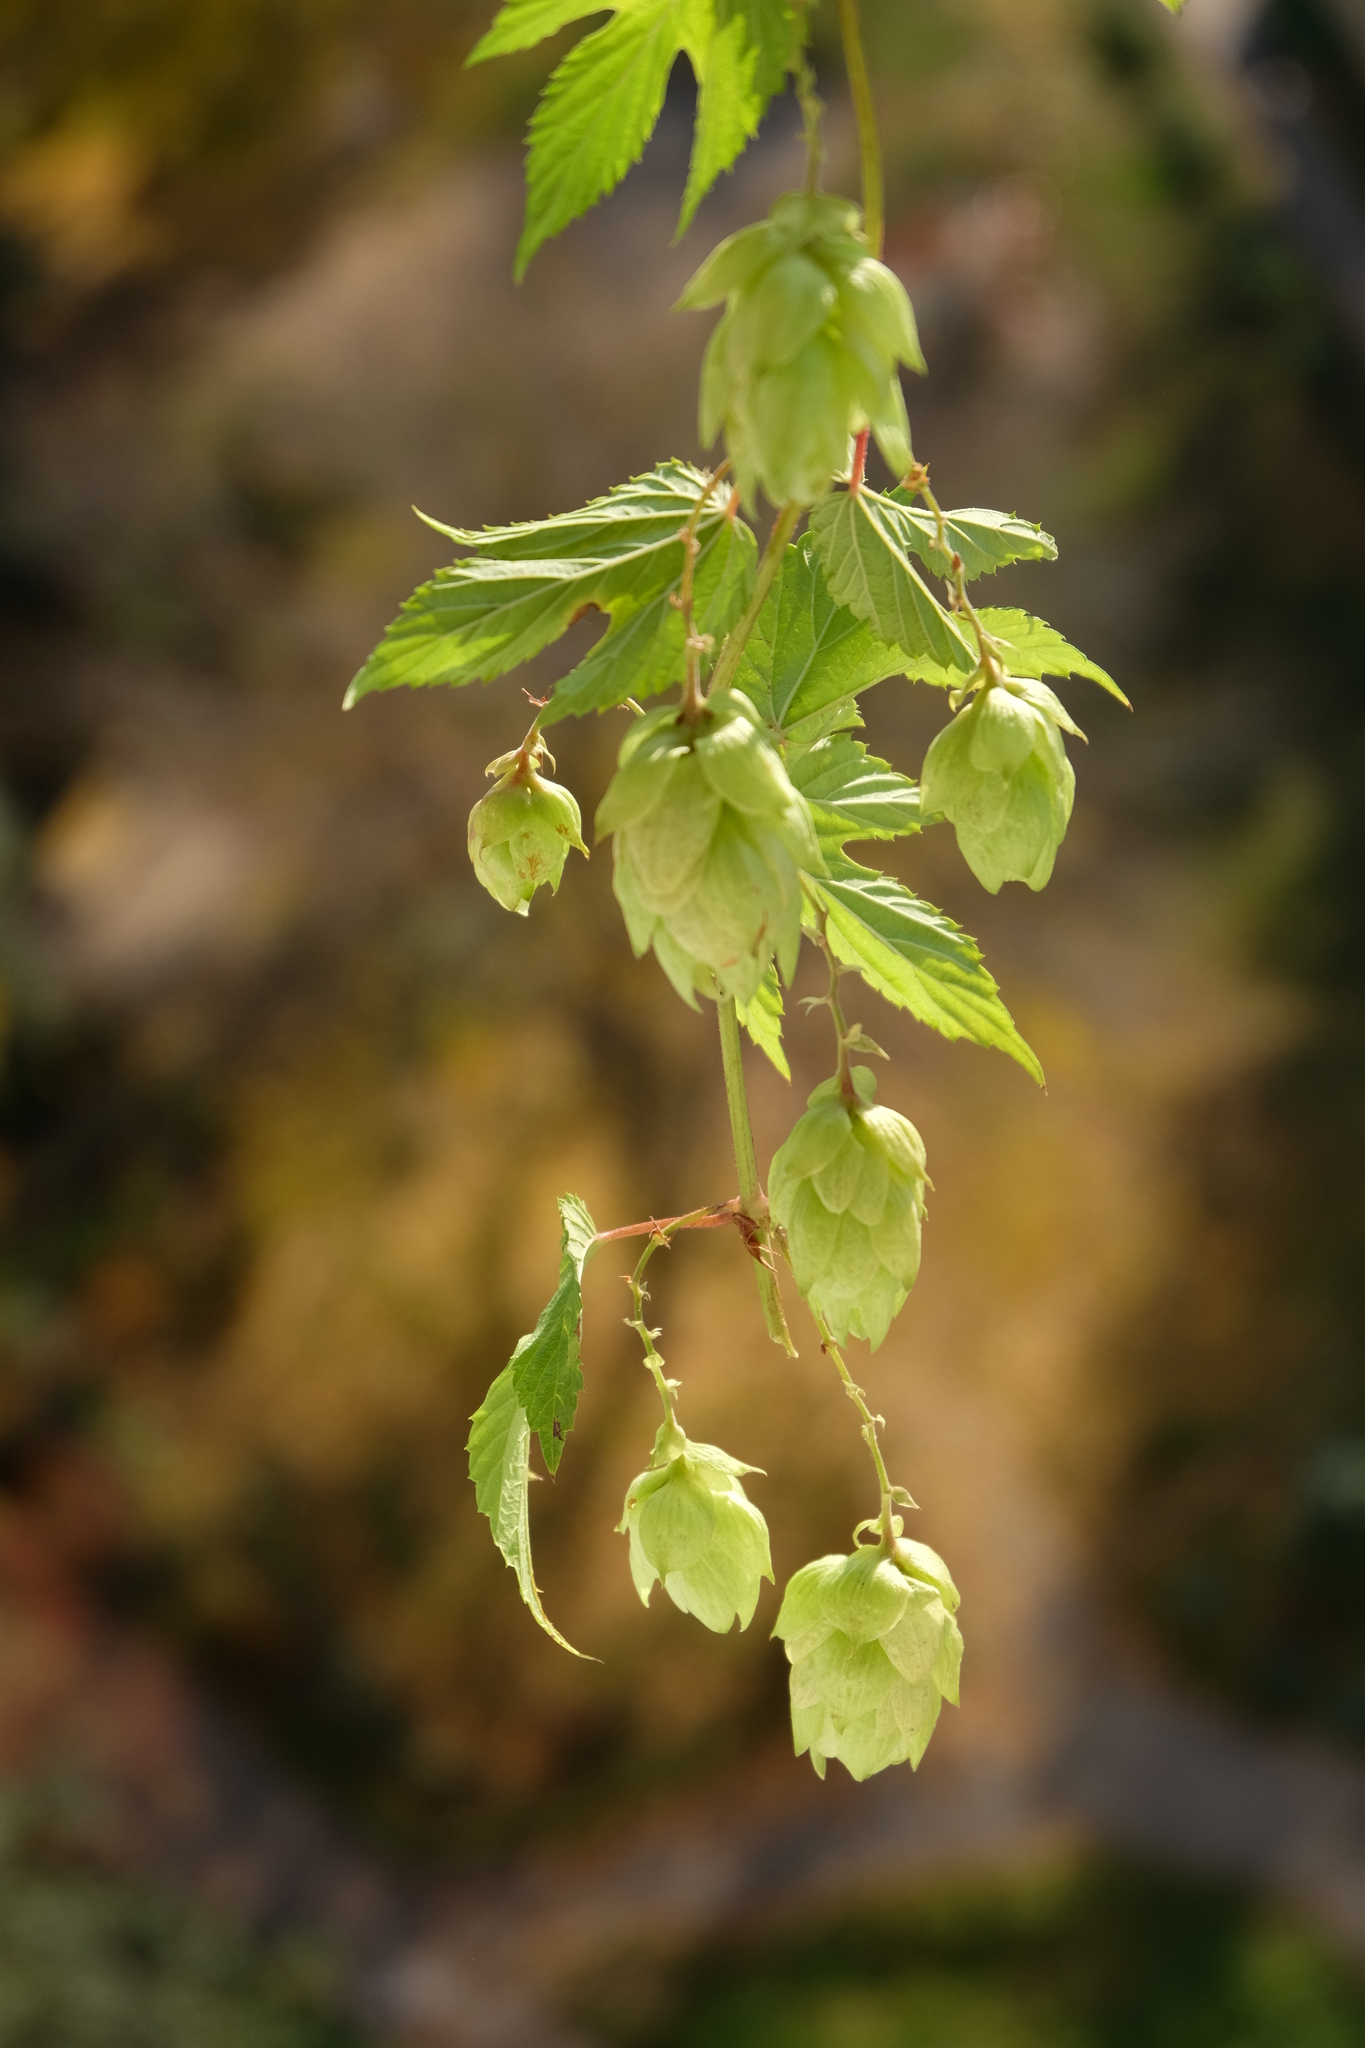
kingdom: Plantae
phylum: Tracheophyta
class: Magnoliopsida
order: Rosales
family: Cannabaceae
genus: Humulus
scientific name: Humulus lupulus
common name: Hop
